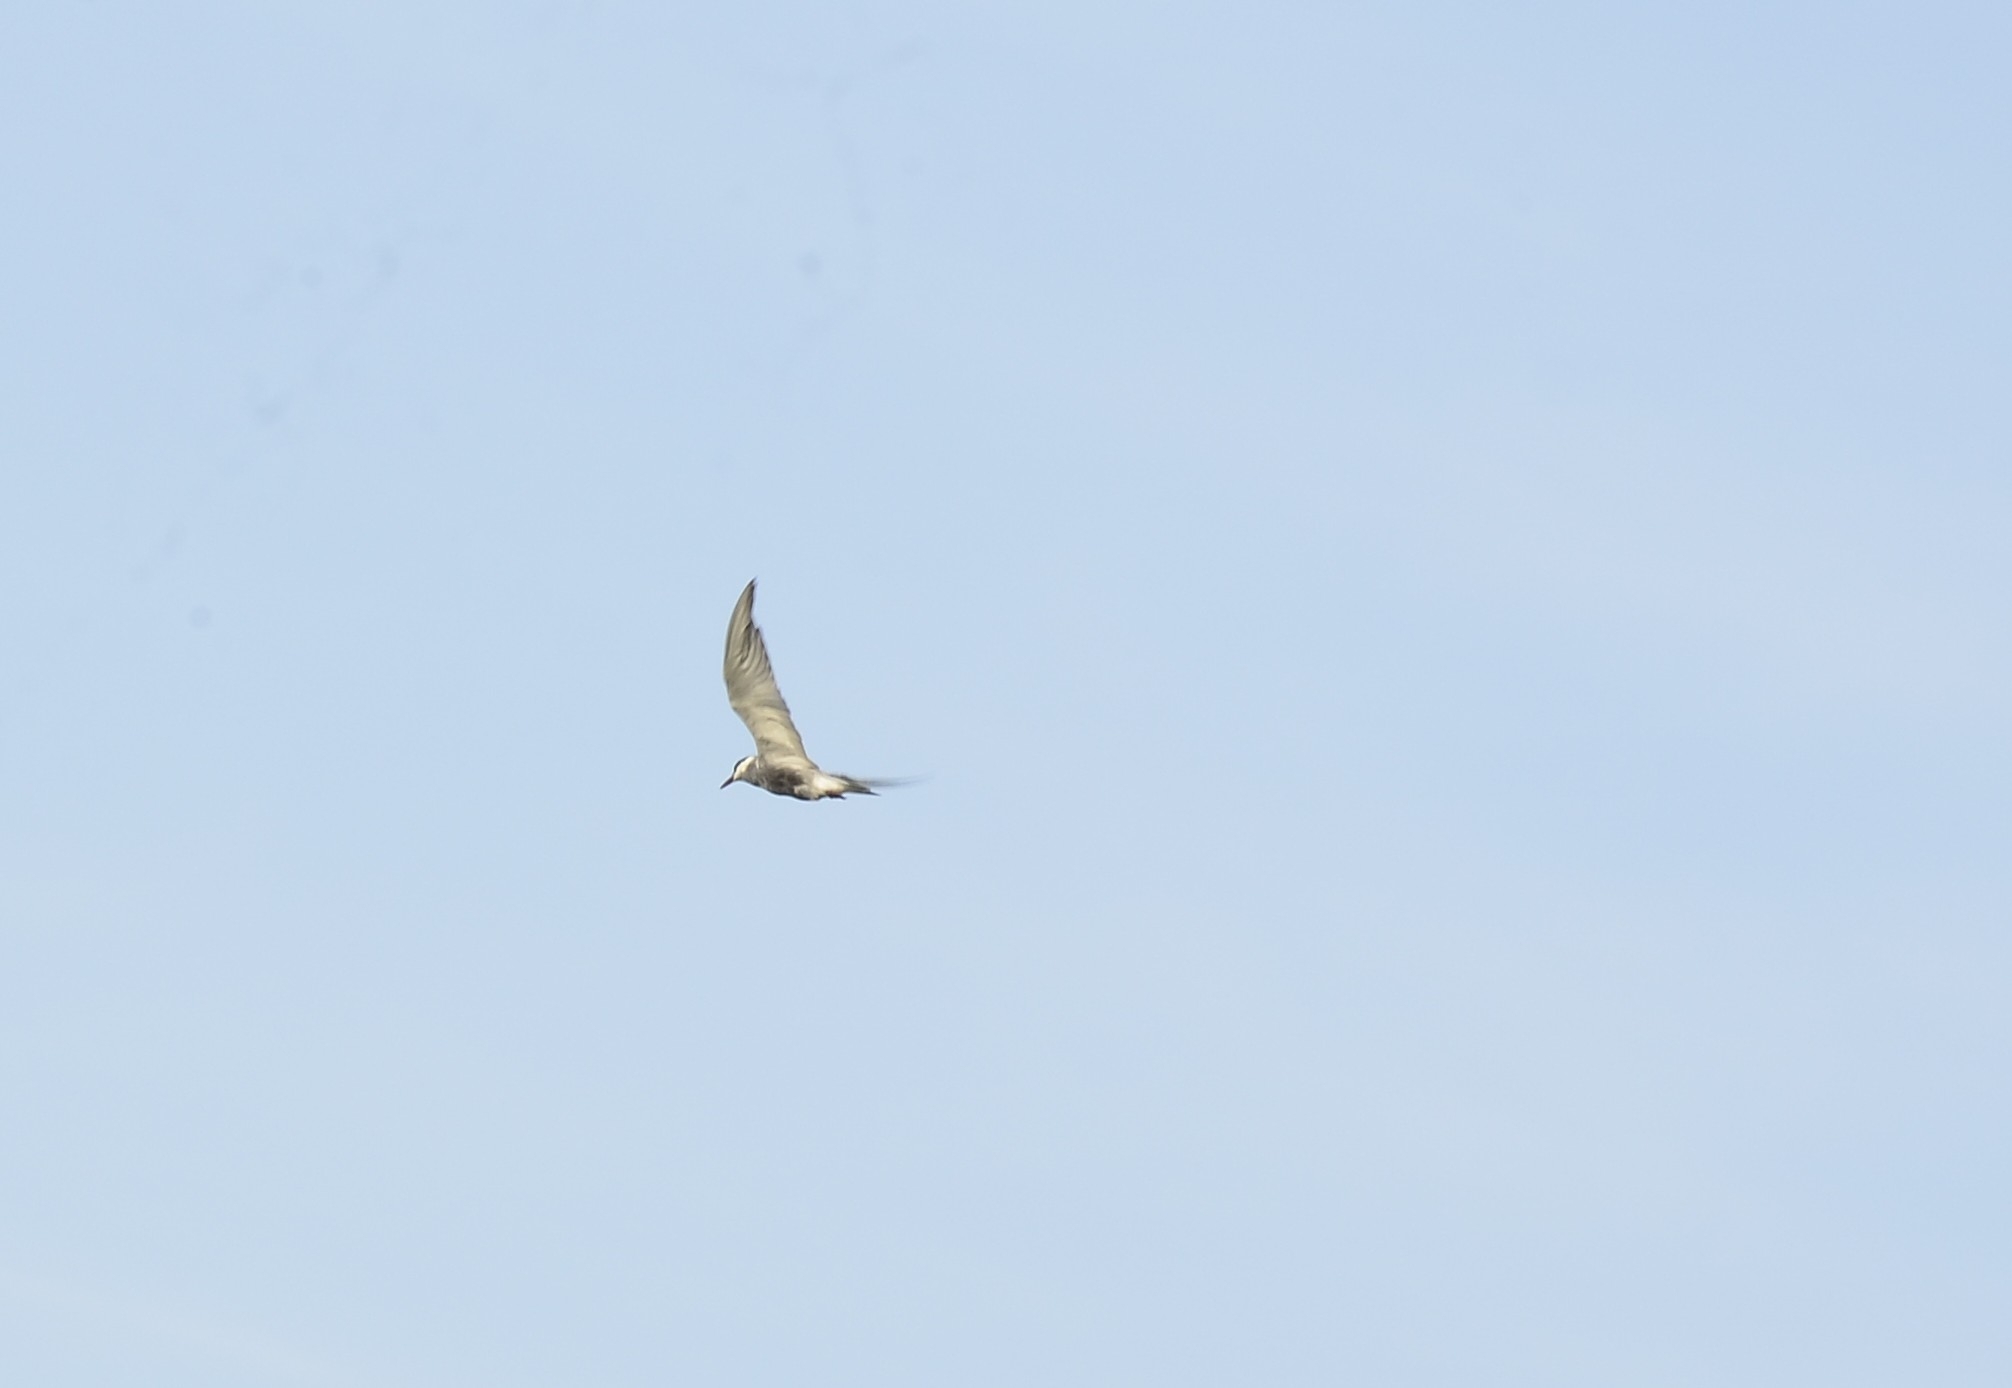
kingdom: Animalia
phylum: Chordata
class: Aves
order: Charadriiformes
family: Laridae
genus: Chlidonias
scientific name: Chlidonias hybrida
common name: Whiskered tern
